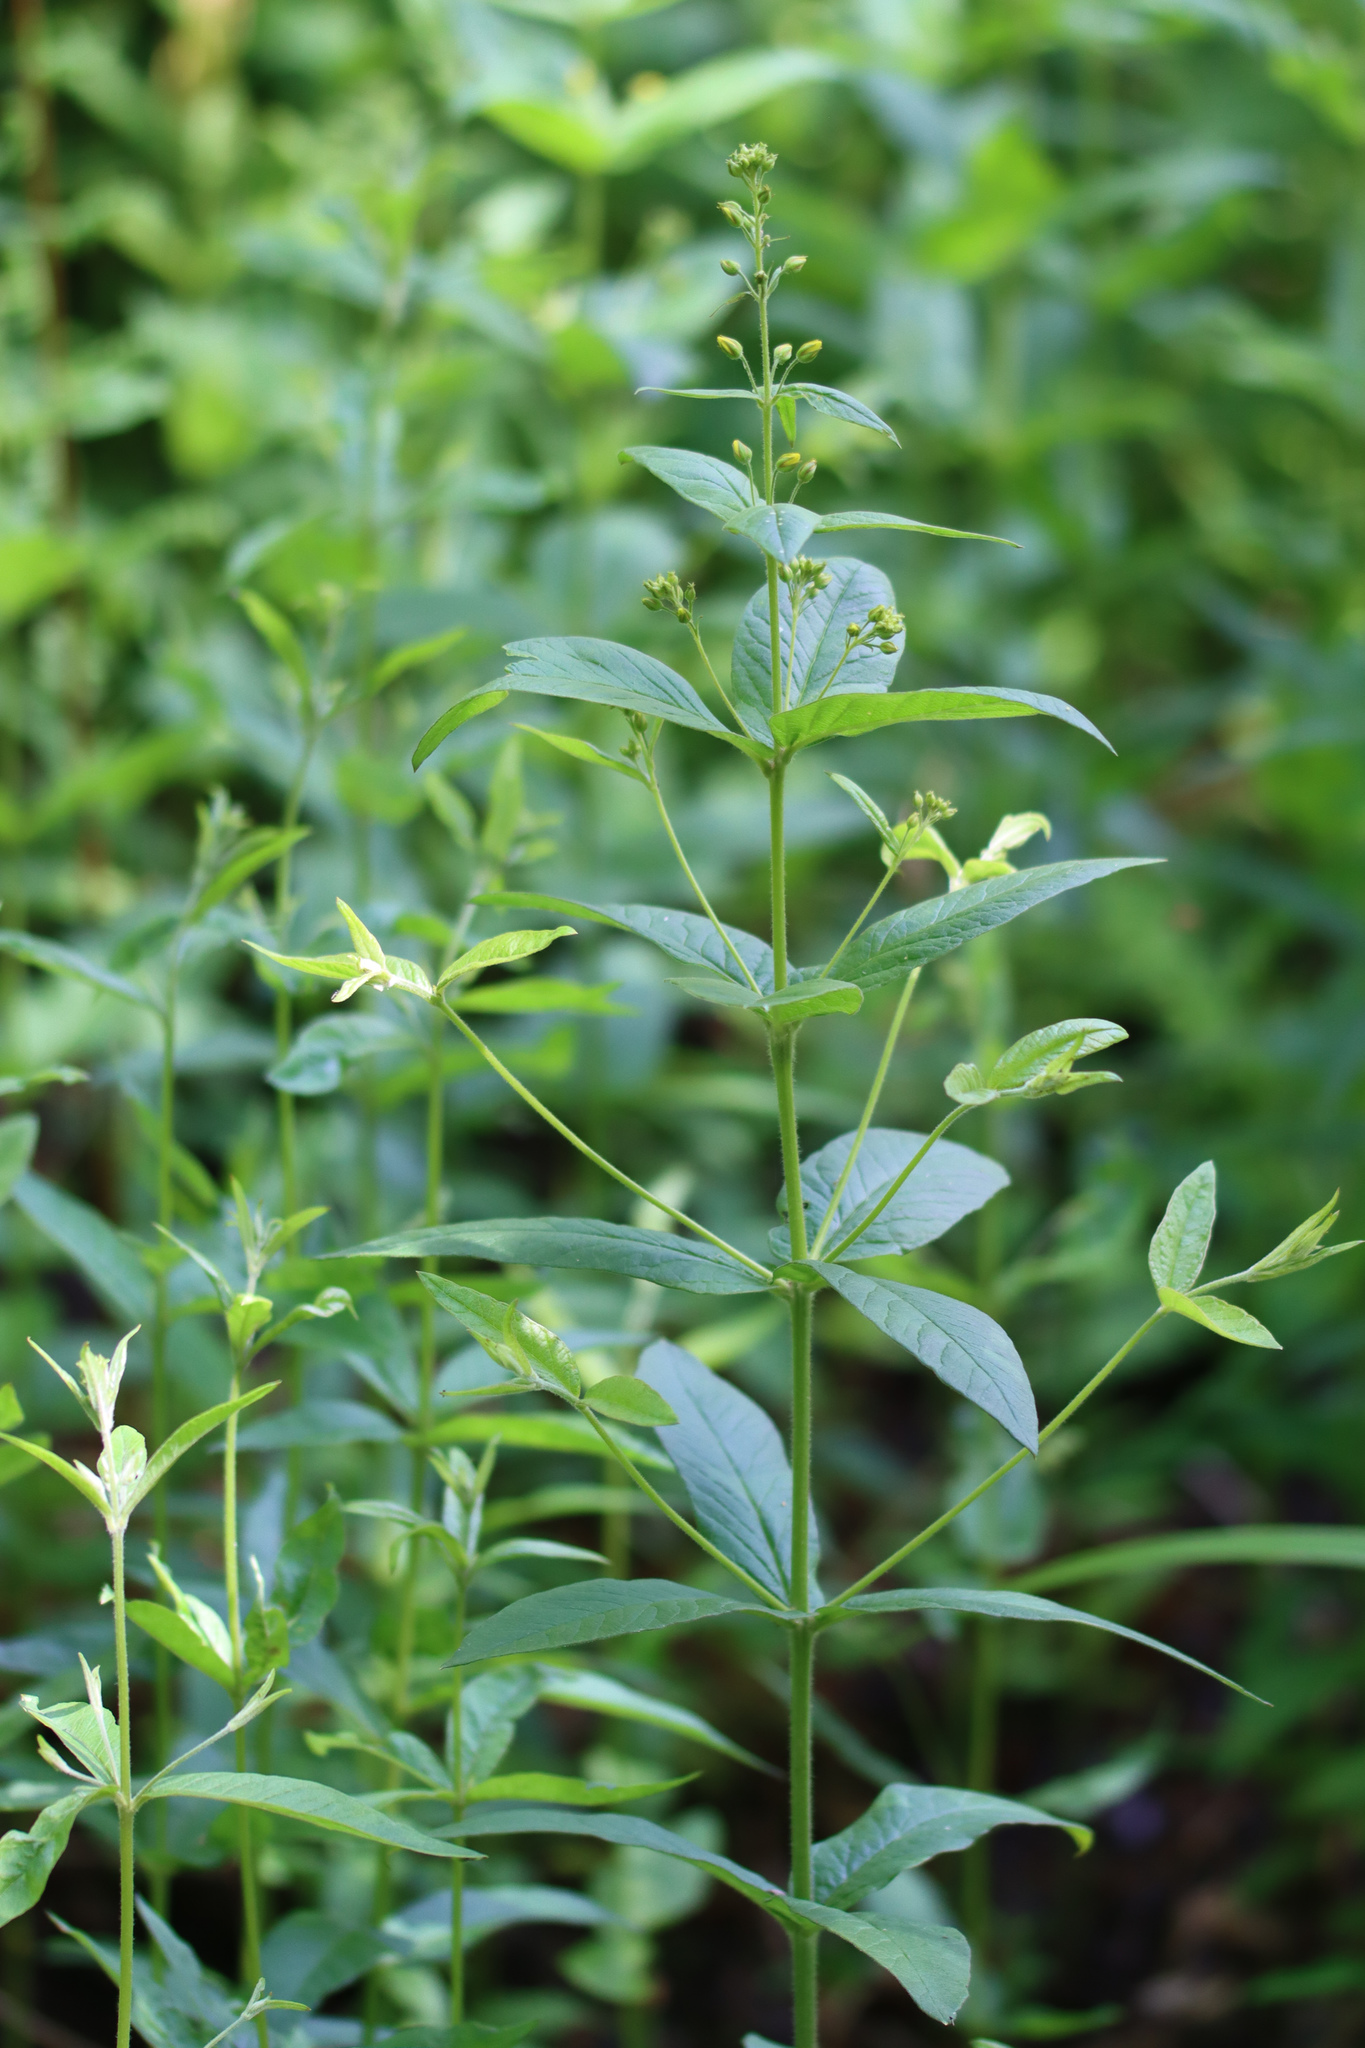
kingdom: Plantae
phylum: Tracheophyta
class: Magnoliopsida
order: Ericales
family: Primulaceae
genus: Lysimachia
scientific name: Lysimachia vulgaris
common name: Yellow loosestrife
